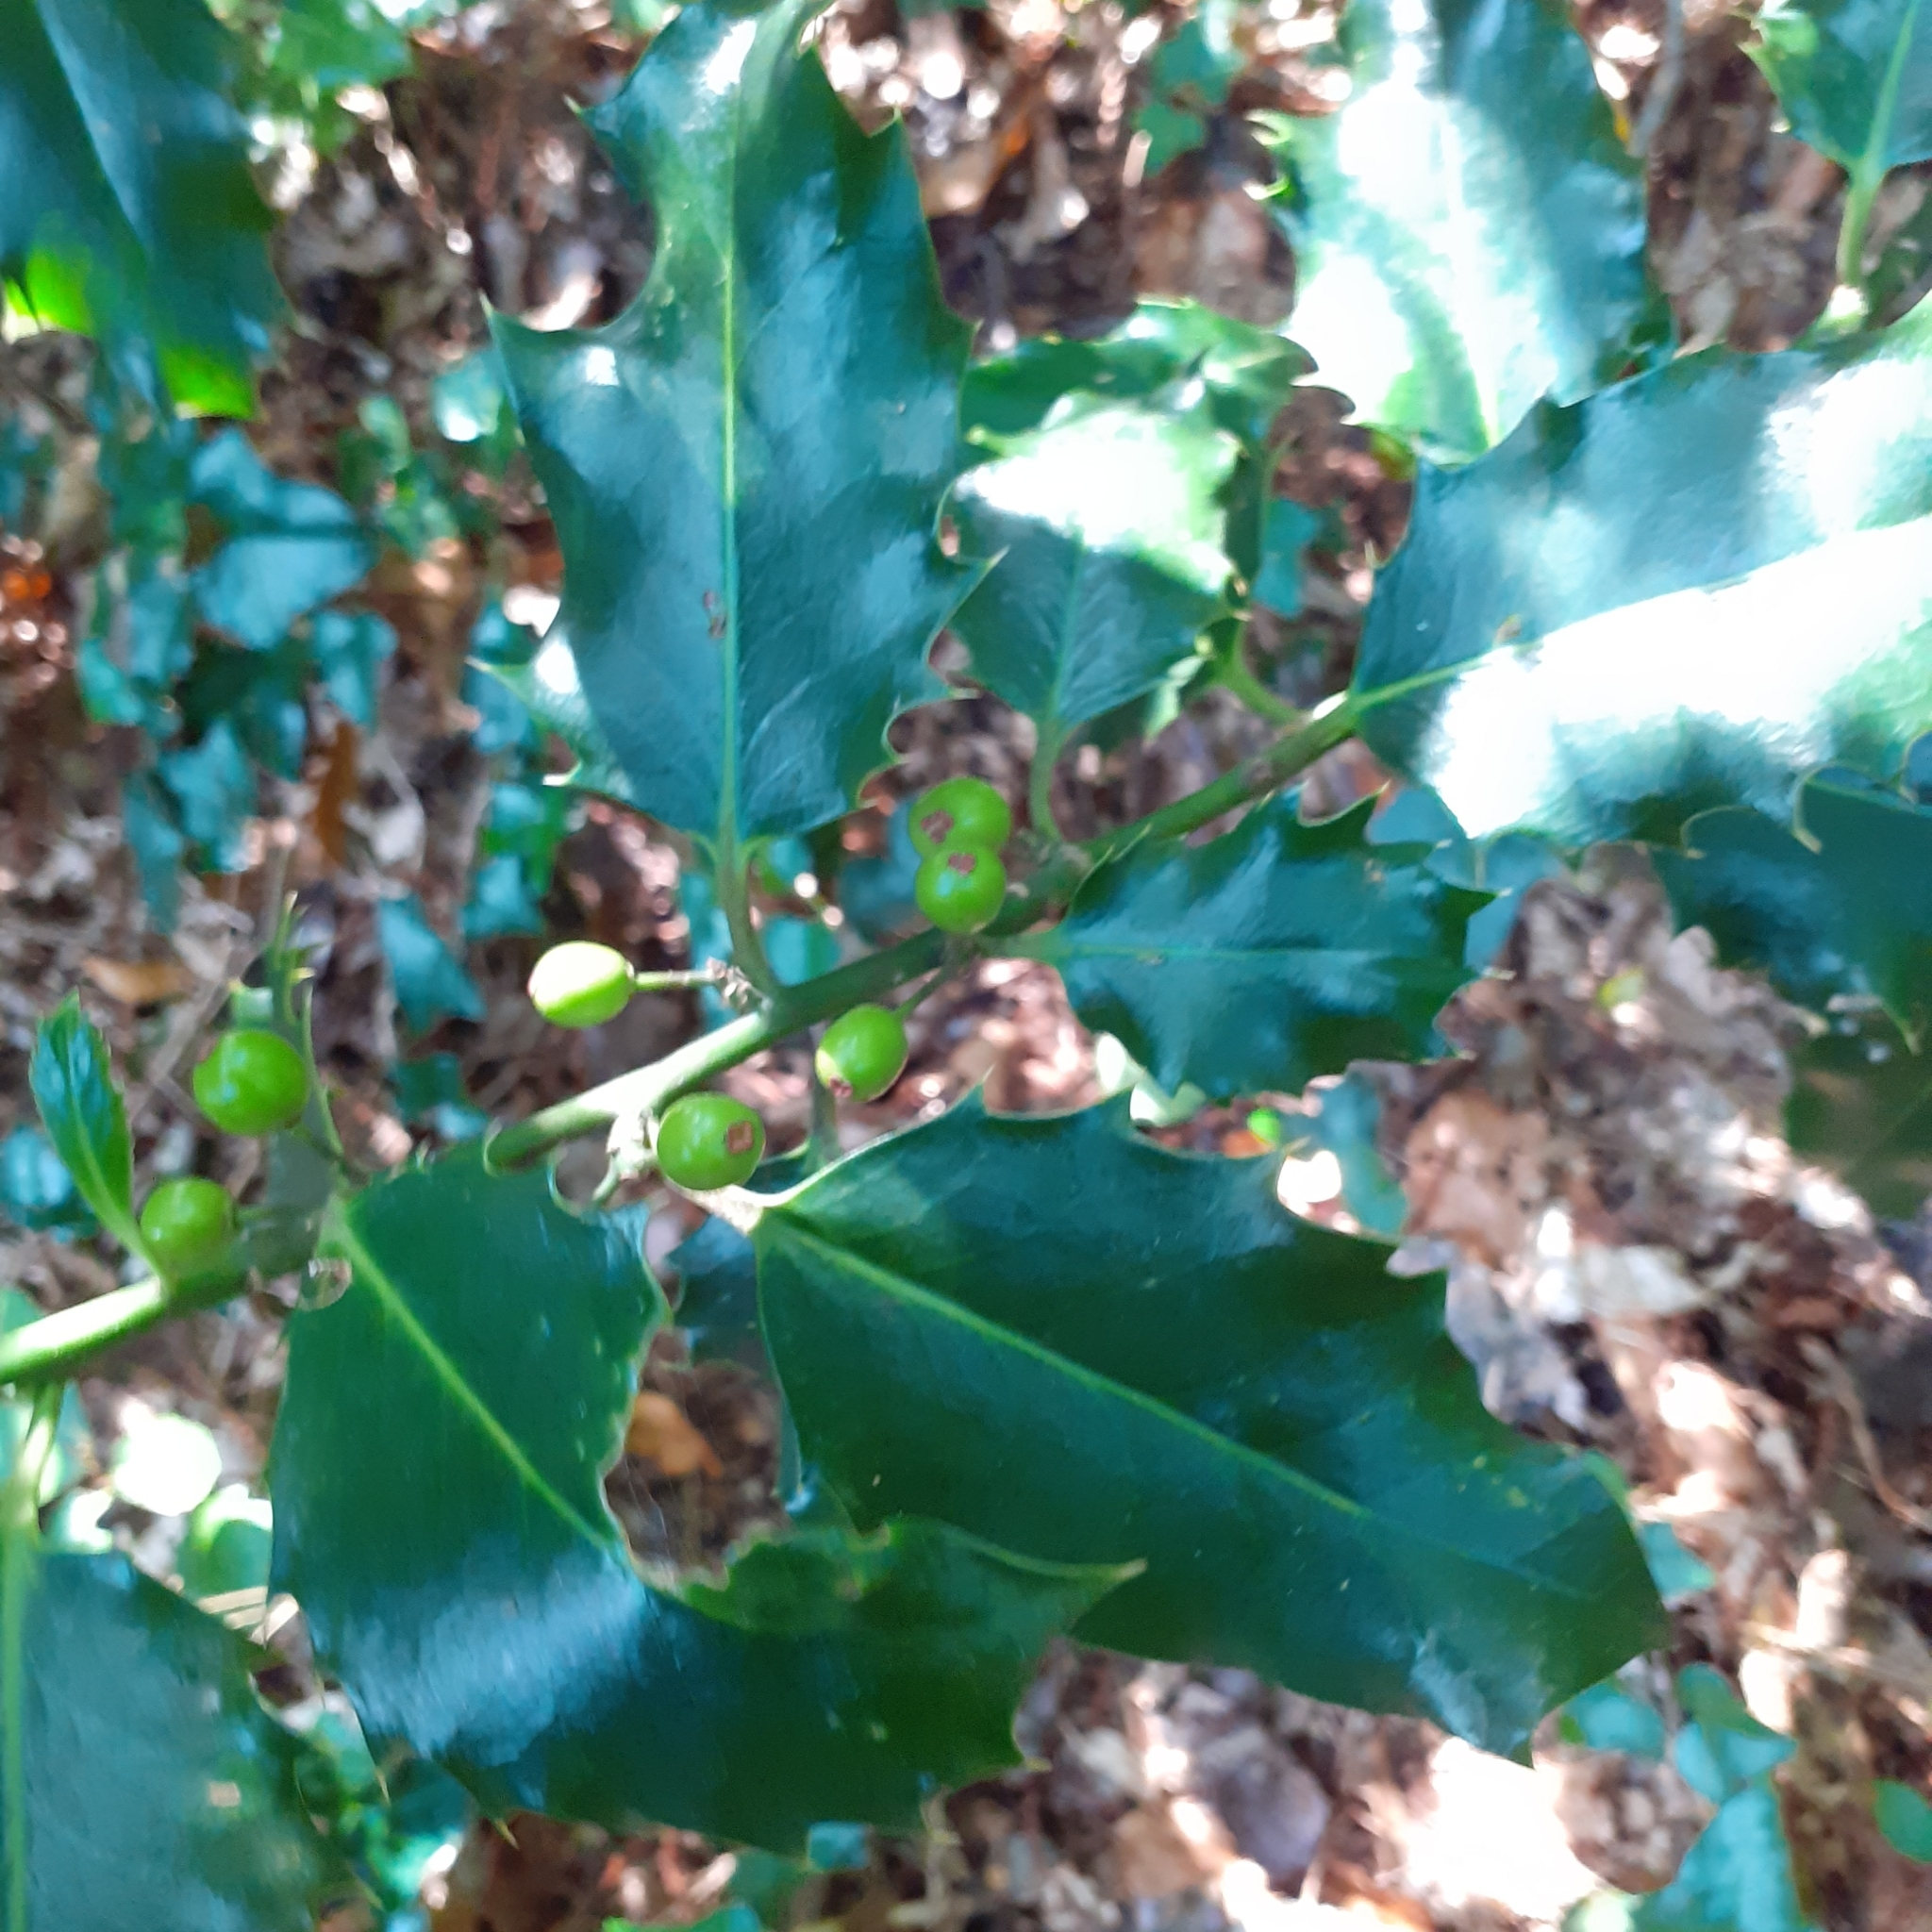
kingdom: Plantae
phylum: Tracheophyta
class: Magnoliopsida
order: Aquifoliales
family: Aquifoliaceae
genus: Ilex
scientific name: Ilex aquifolium
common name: English holly
